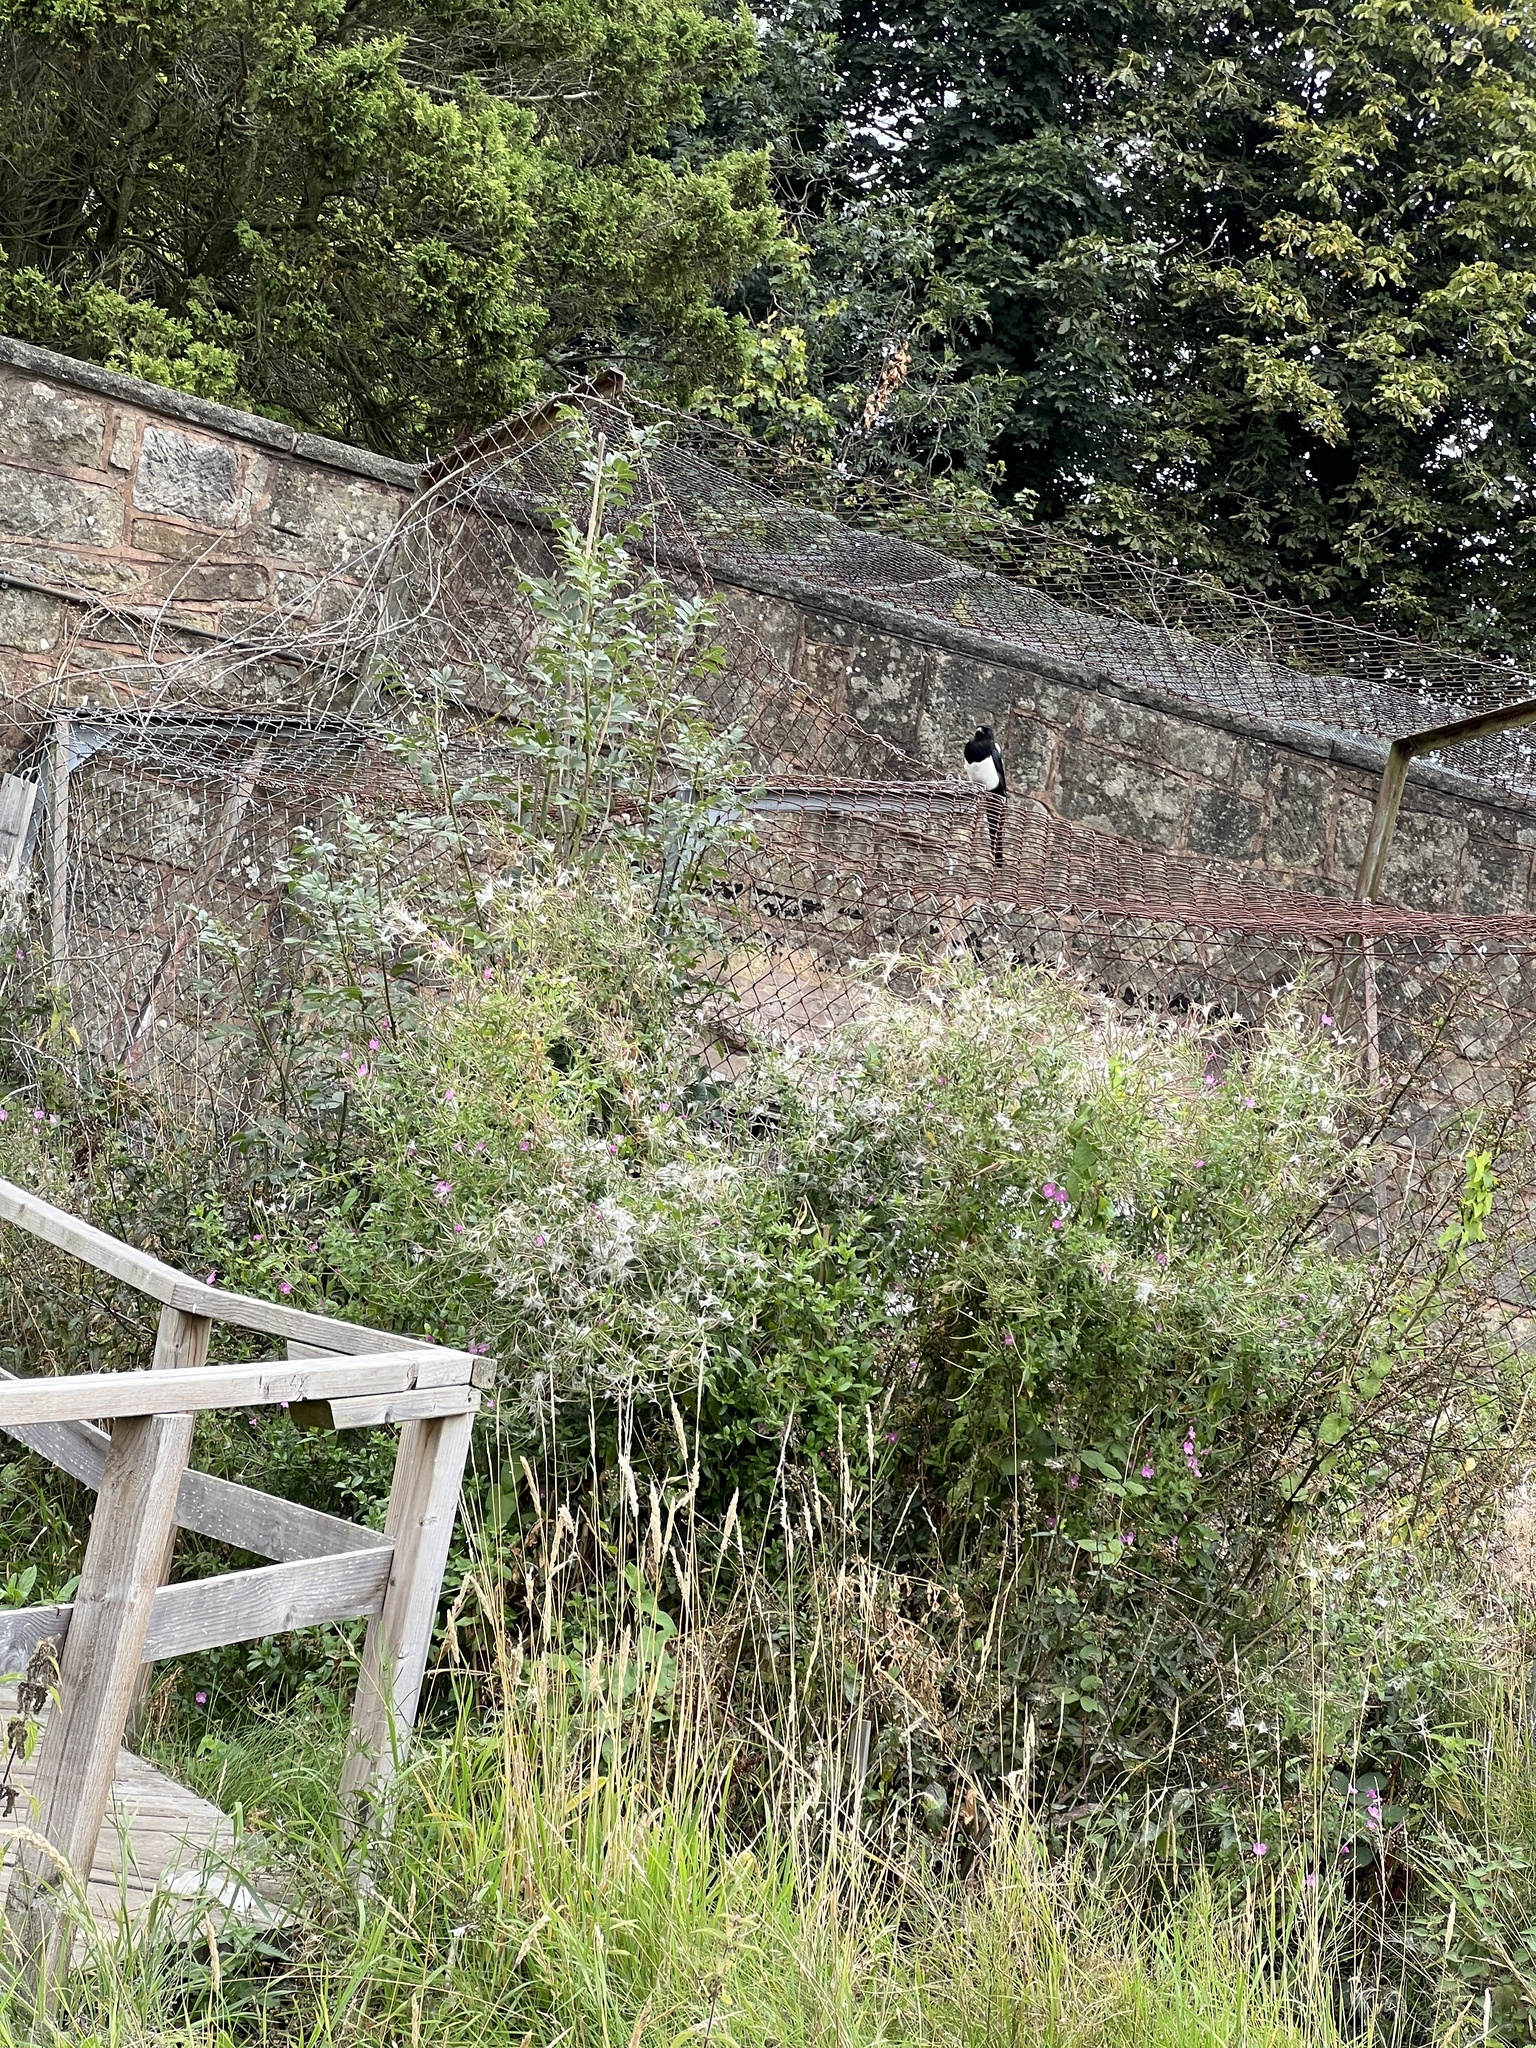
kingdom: Animalia
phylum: Chordata
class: Aves
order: Passeriformes
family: Corvidae
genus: Pica
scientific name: Pica pica
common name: Eurasian magpie
